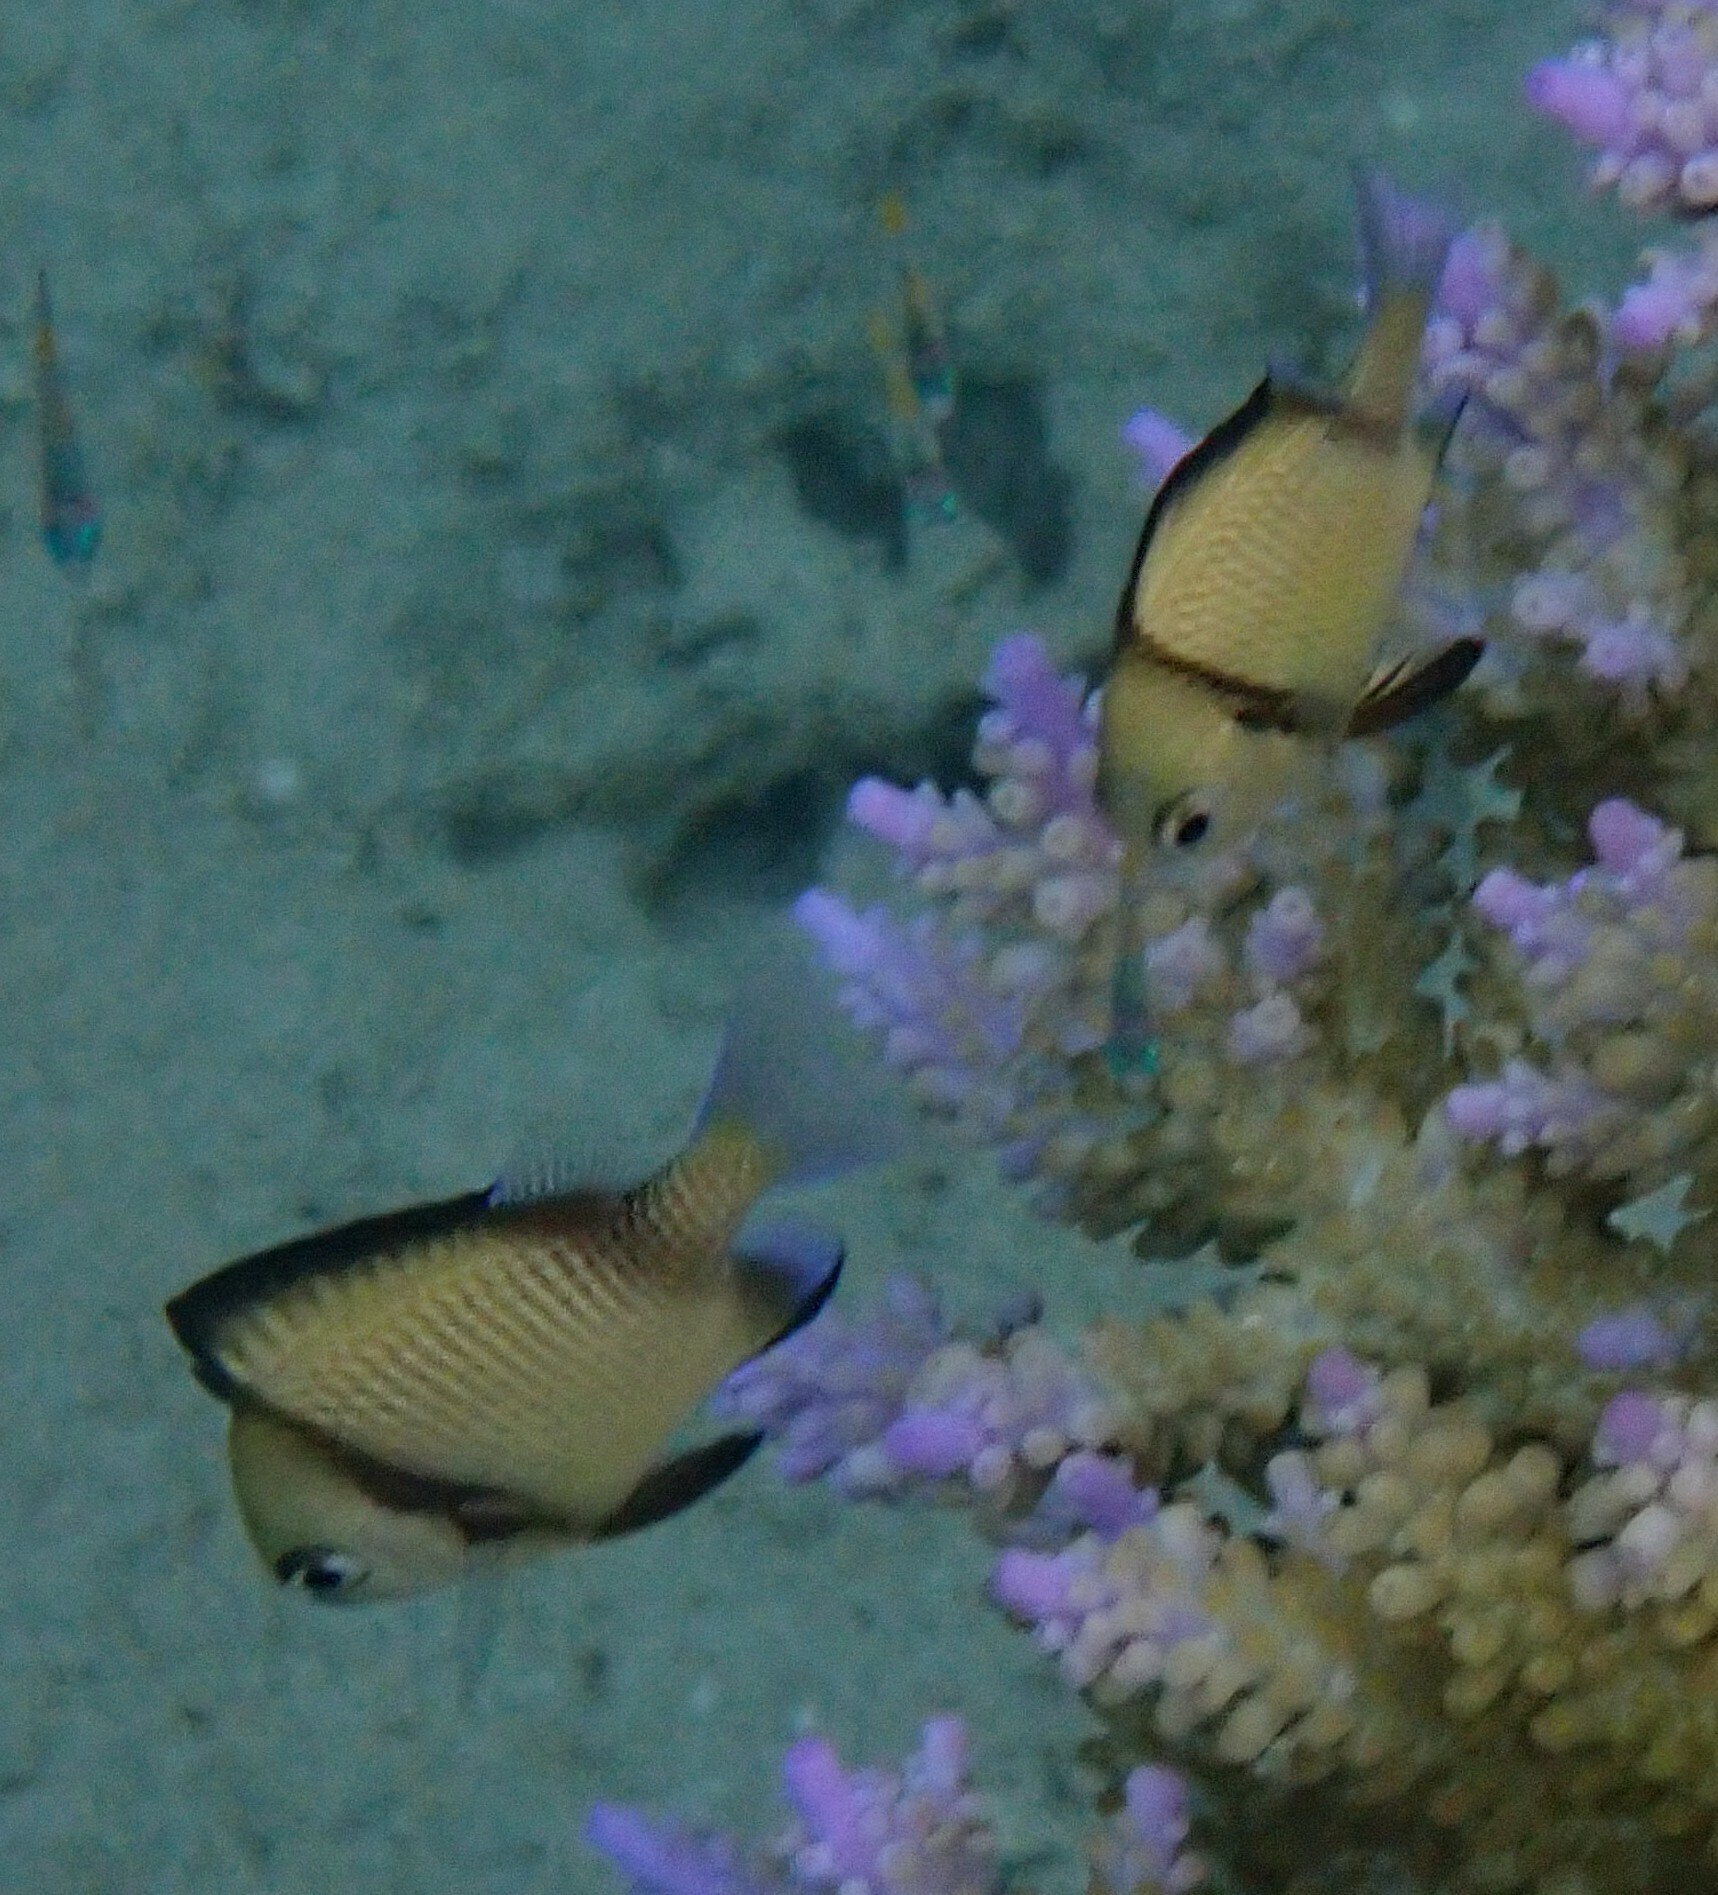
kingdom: Animalia
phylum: Chordata
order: Perciformes
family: Pomacentridae
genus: Dascyllus
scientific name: Dascyllus reticulatus
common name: Reticulated dascyllus
